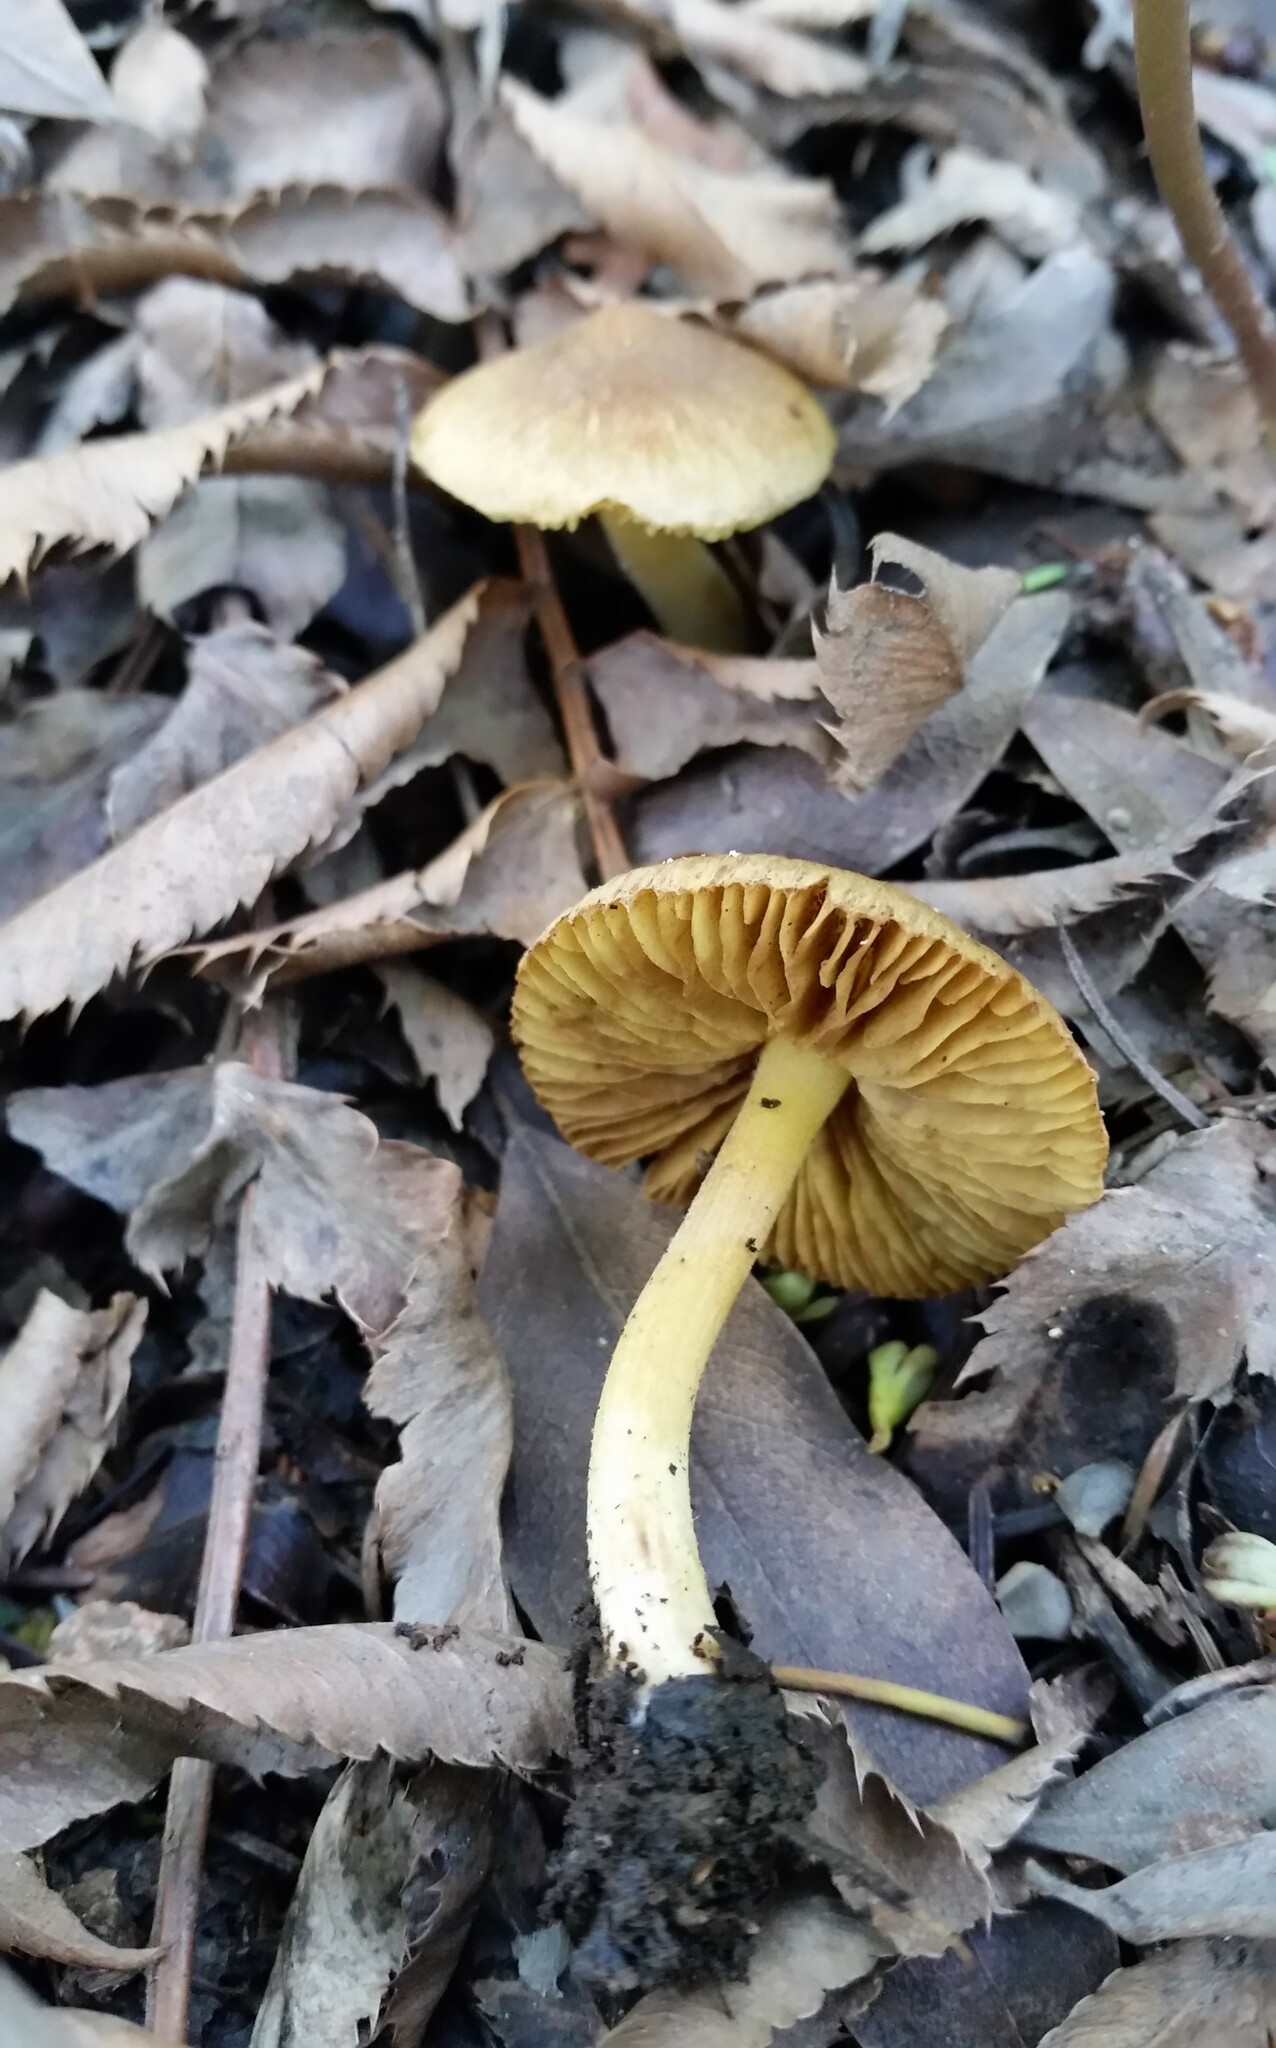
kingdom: Fungi
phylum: Basidiomycota
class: Agaricomycetes
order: Agaricales
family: Inocybaceae
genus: Inocybe
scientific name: Inocybe mycenoides
